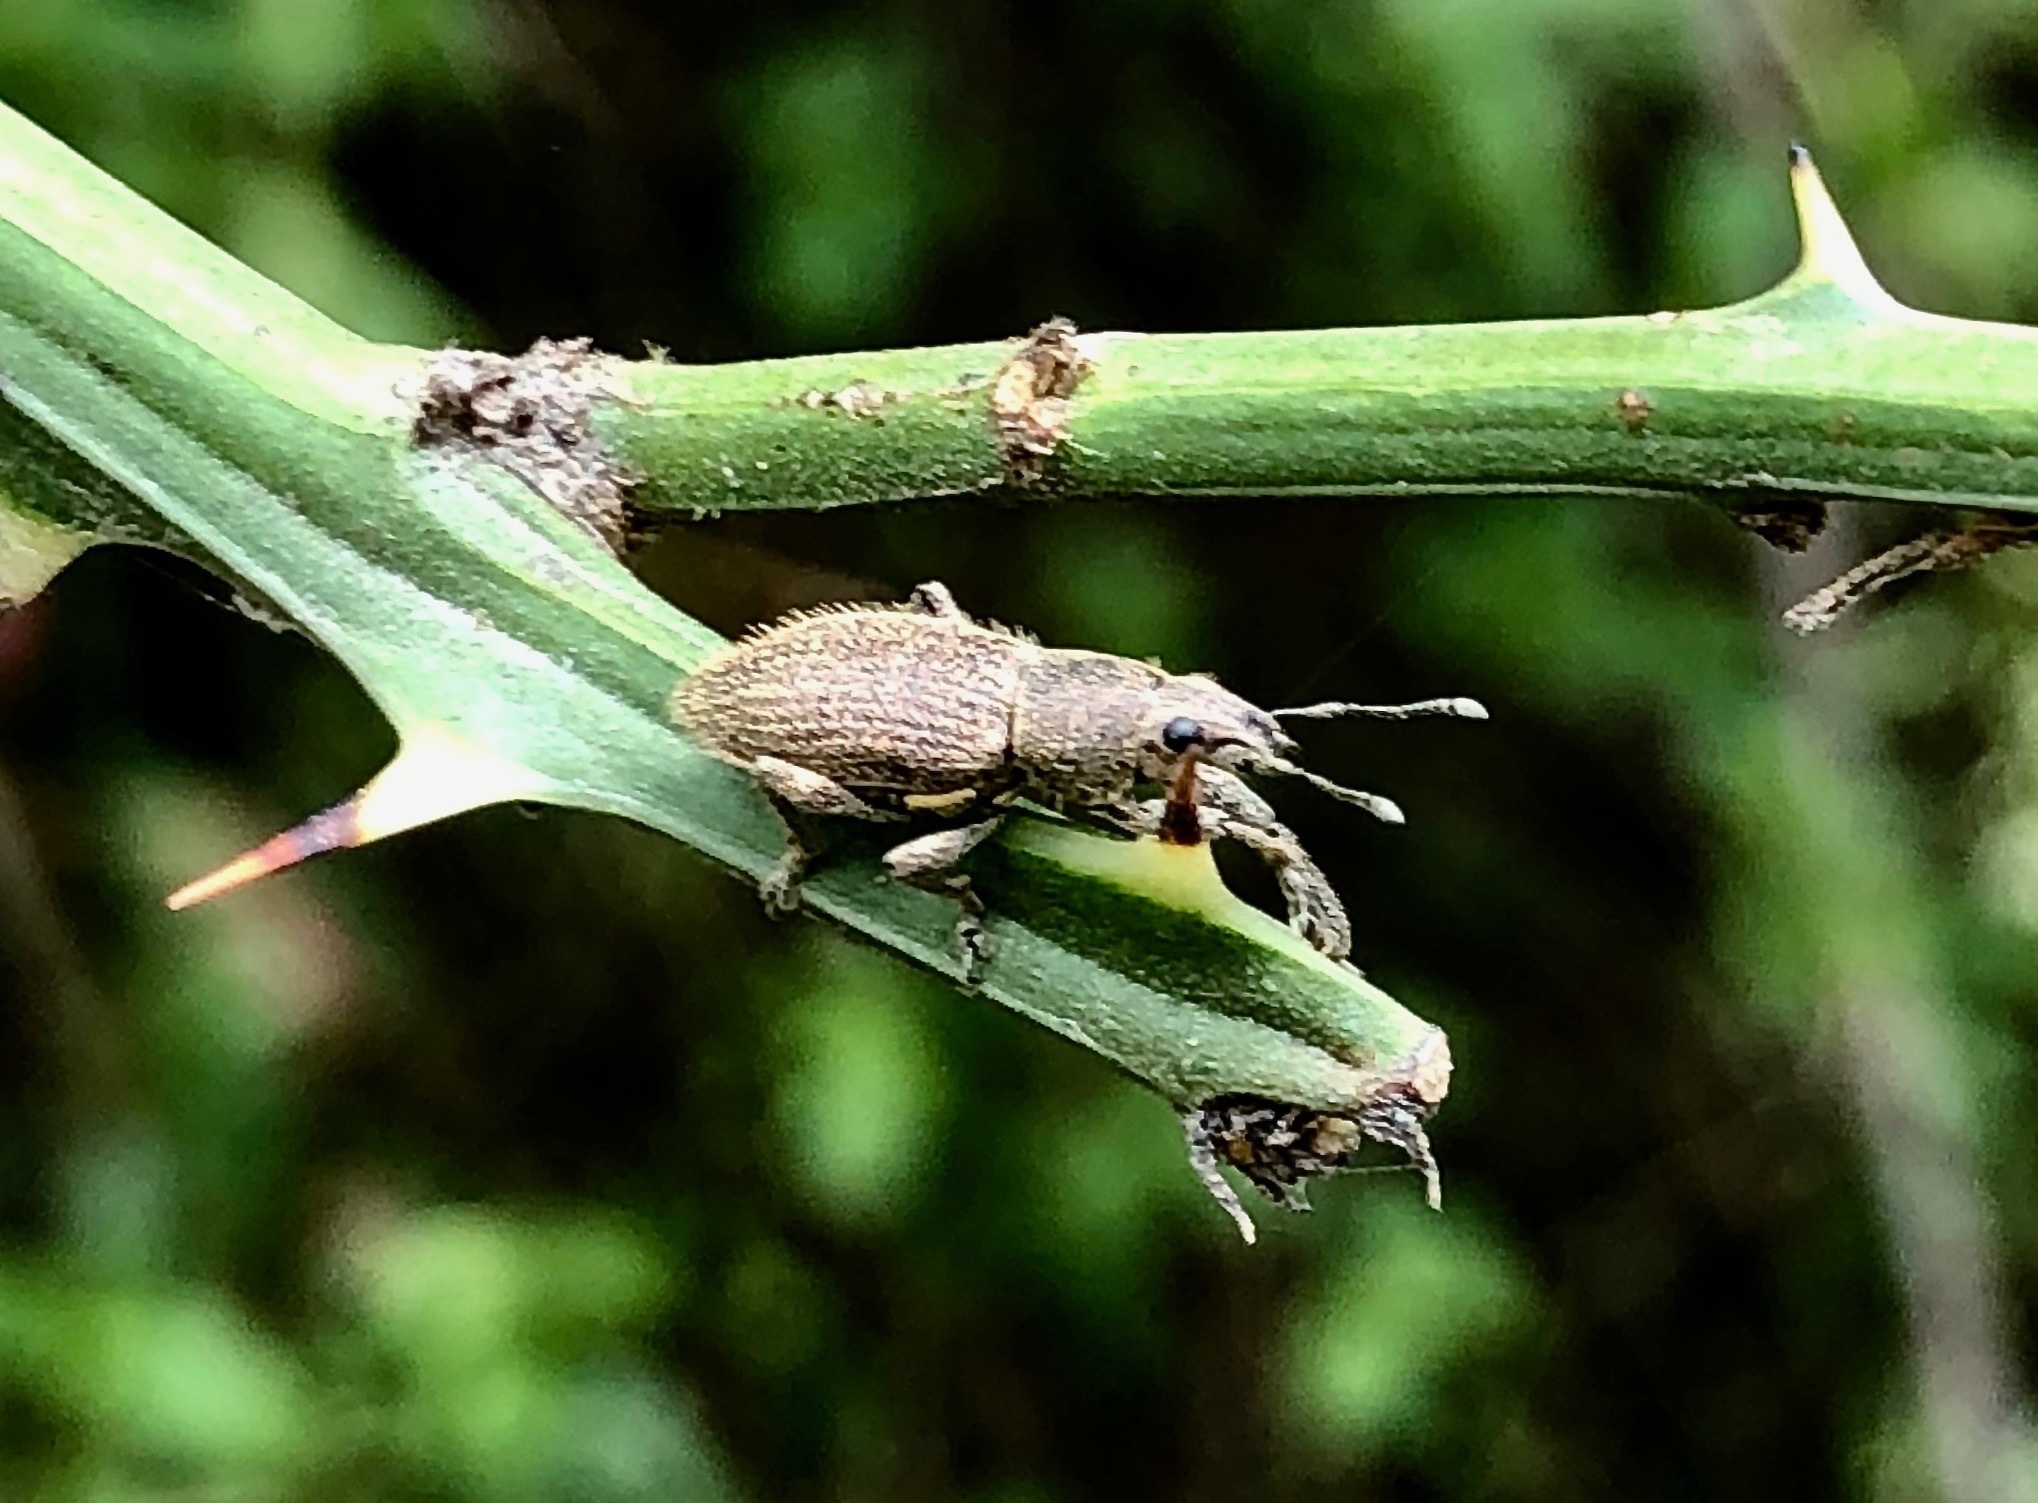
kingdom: Animalia
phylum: Arthropoda
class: Insecta
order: Coleoptera
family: Curculionidae
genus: Asymmathetes
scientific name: Asymmathetes episternalis
